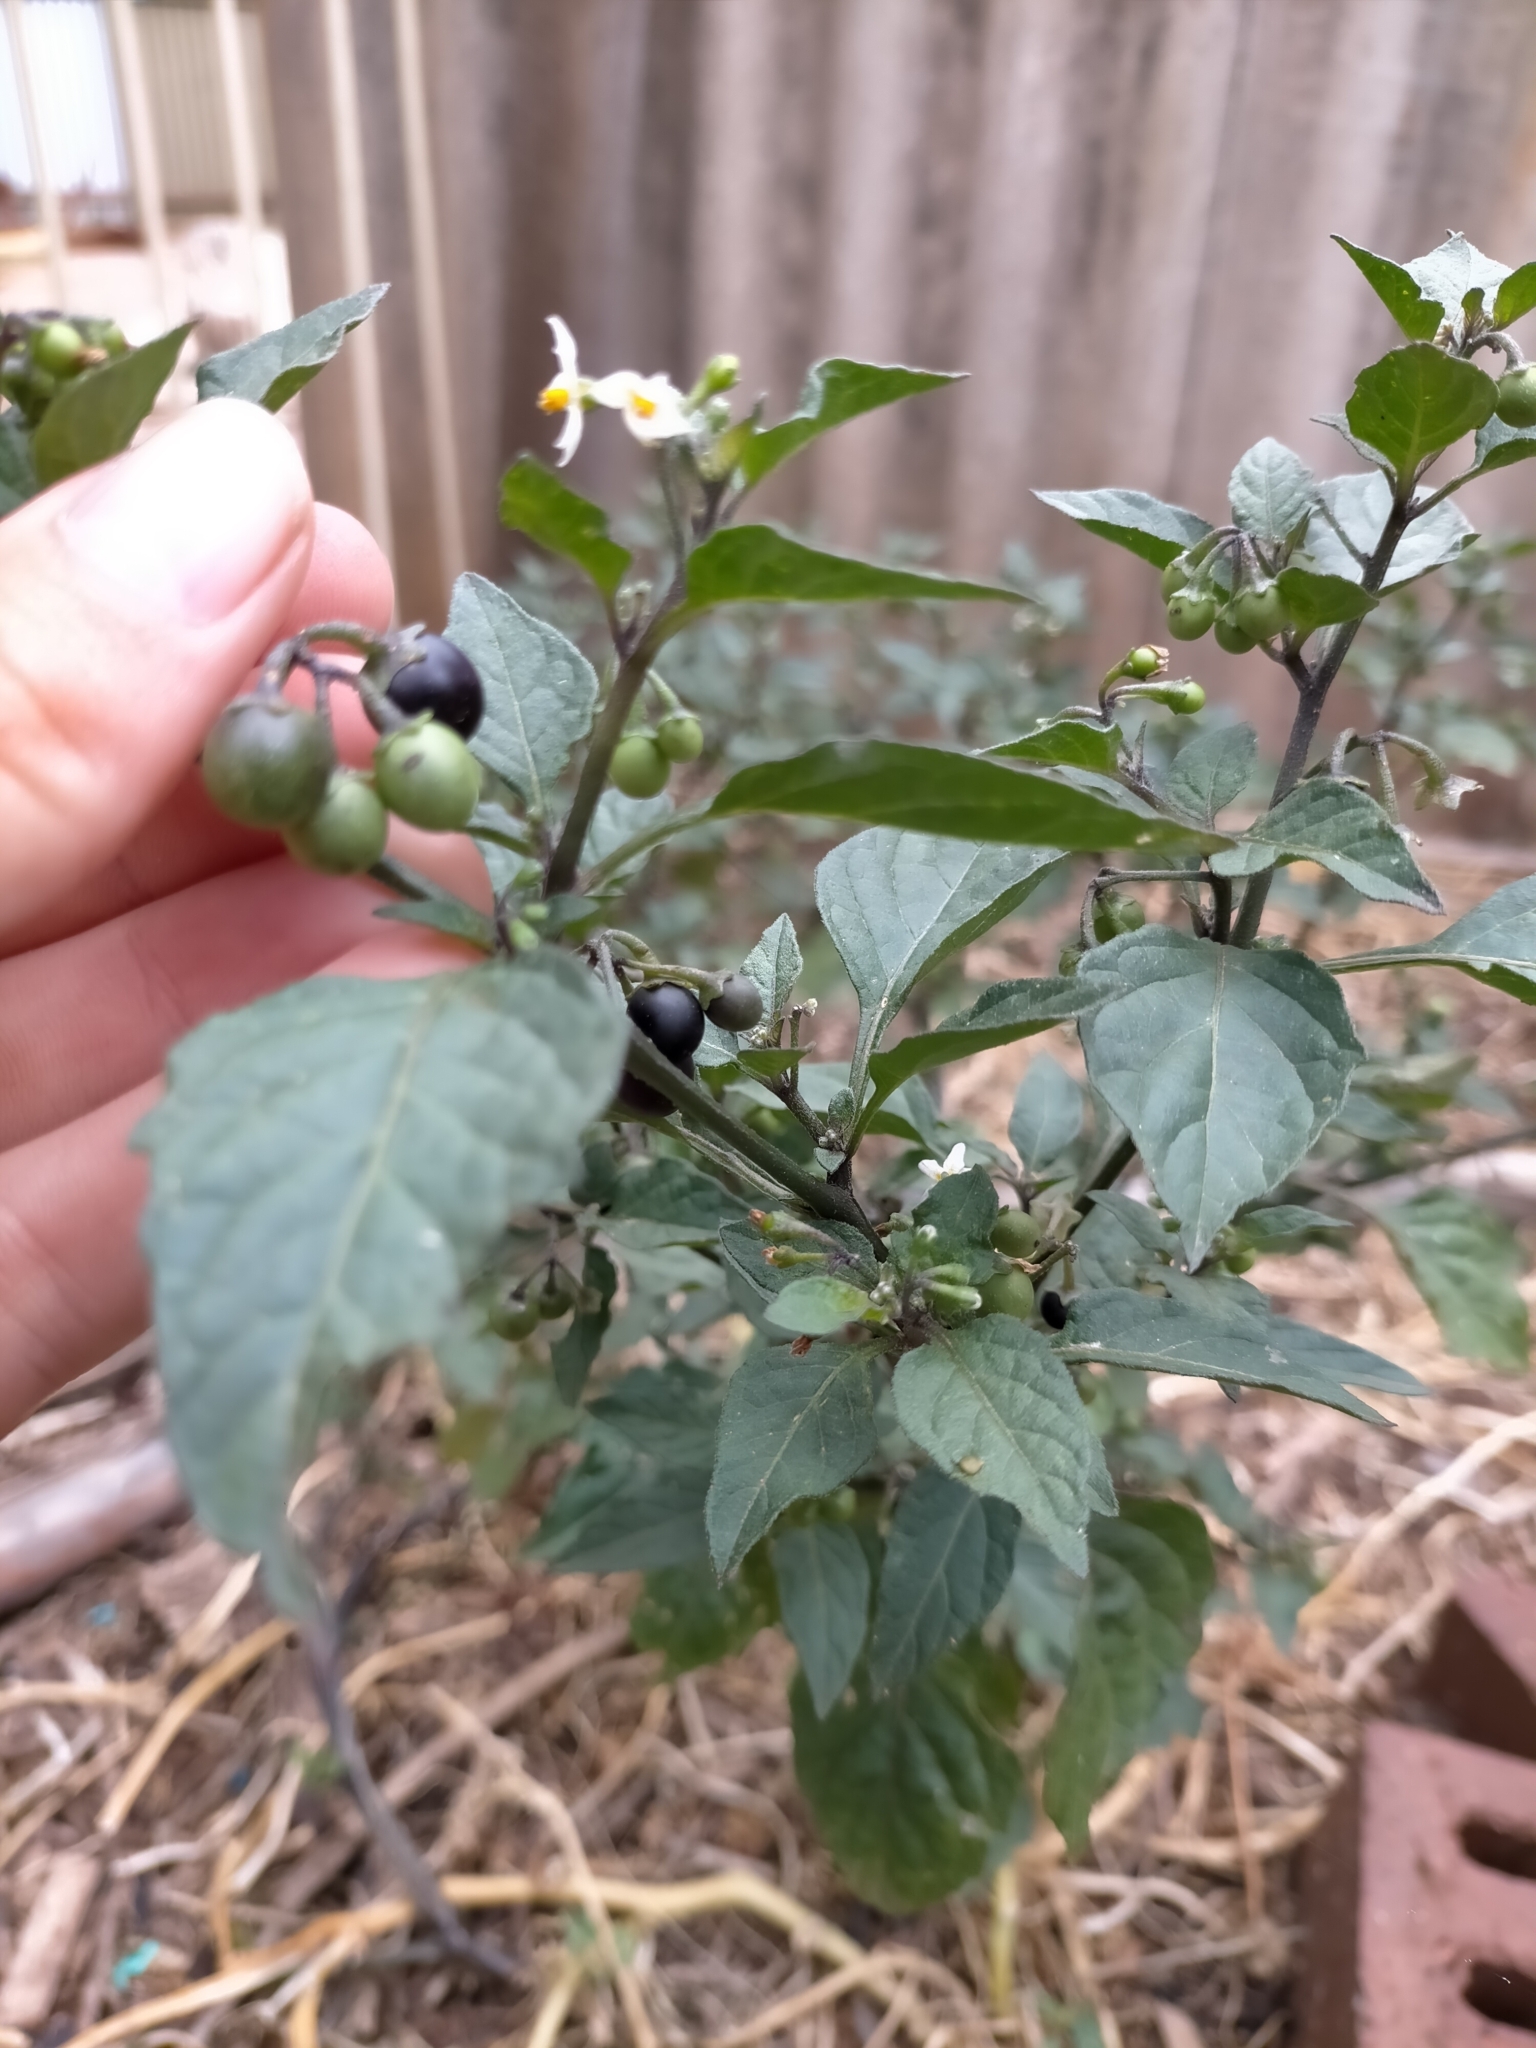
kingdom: Plantae
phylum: Tracheophyta
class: Magnoliopsida
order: Solanales
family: Solanaceae
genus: Solanum
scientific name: Solanum nigrum
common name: Black nightshade
